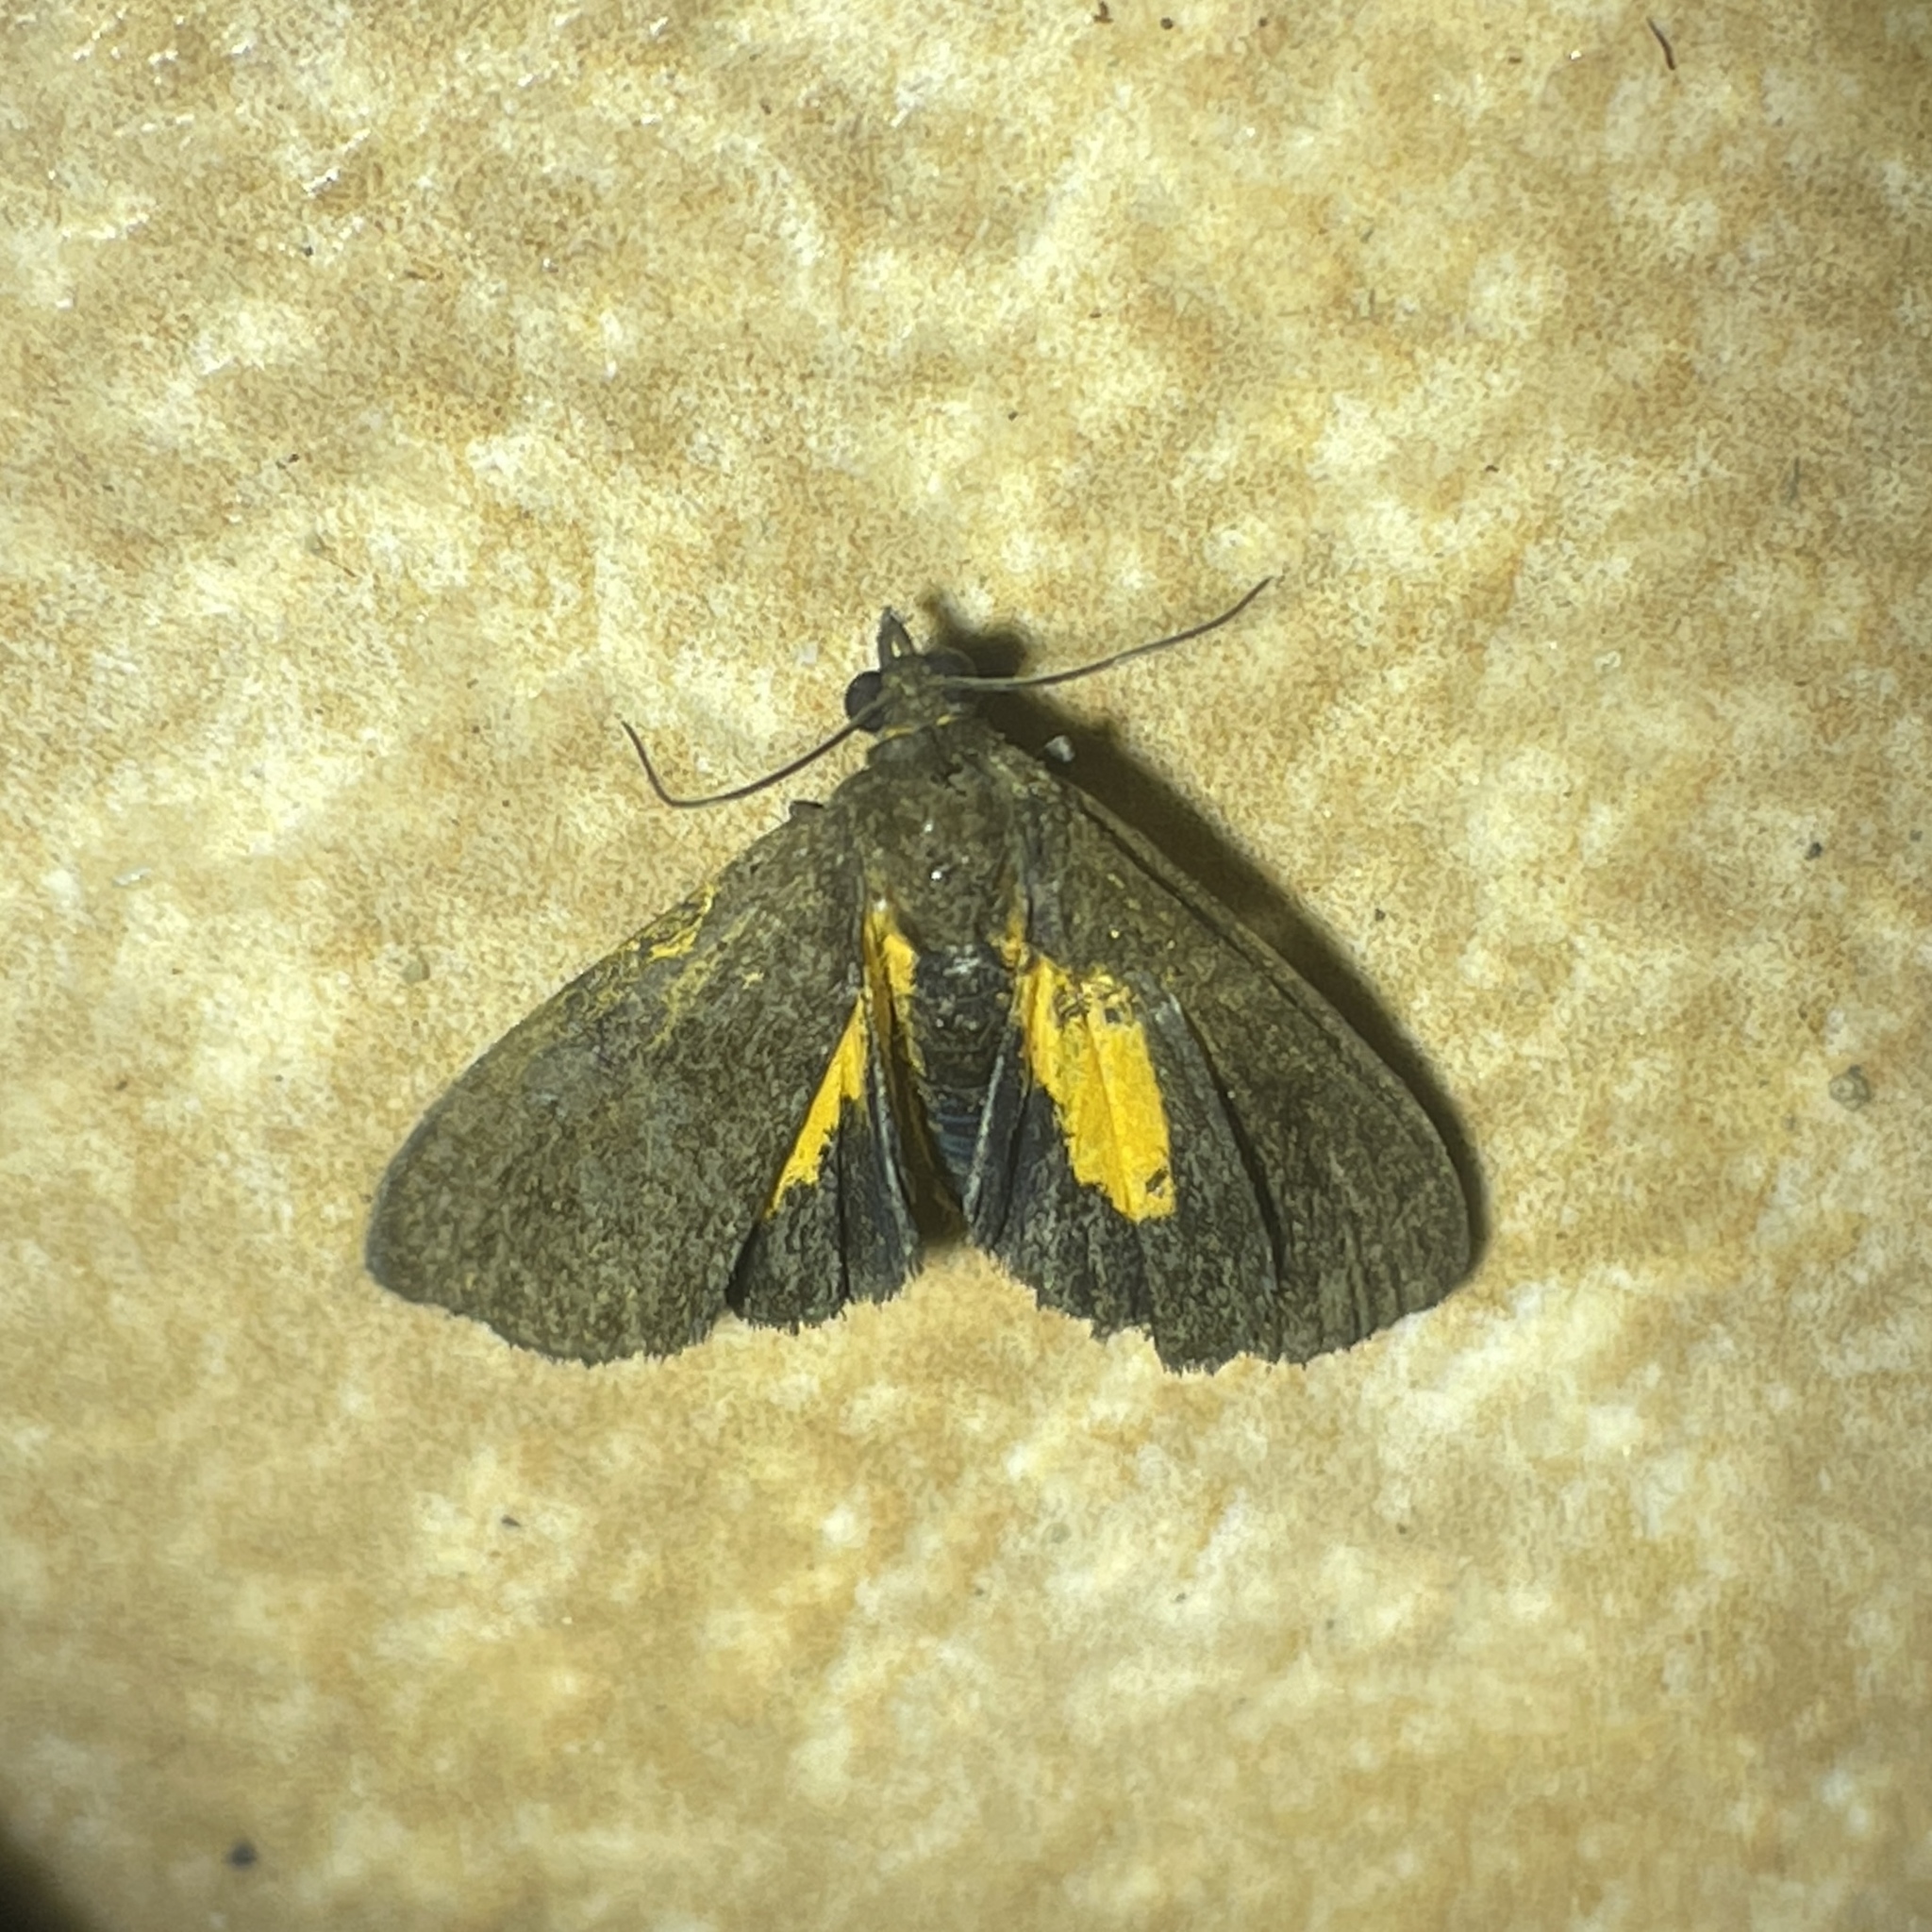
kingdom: Animalia
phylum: Arthropoda
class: Insecta
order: Lepidoptera
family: Erebidae
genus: Virbia
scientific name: Virbia medarda
